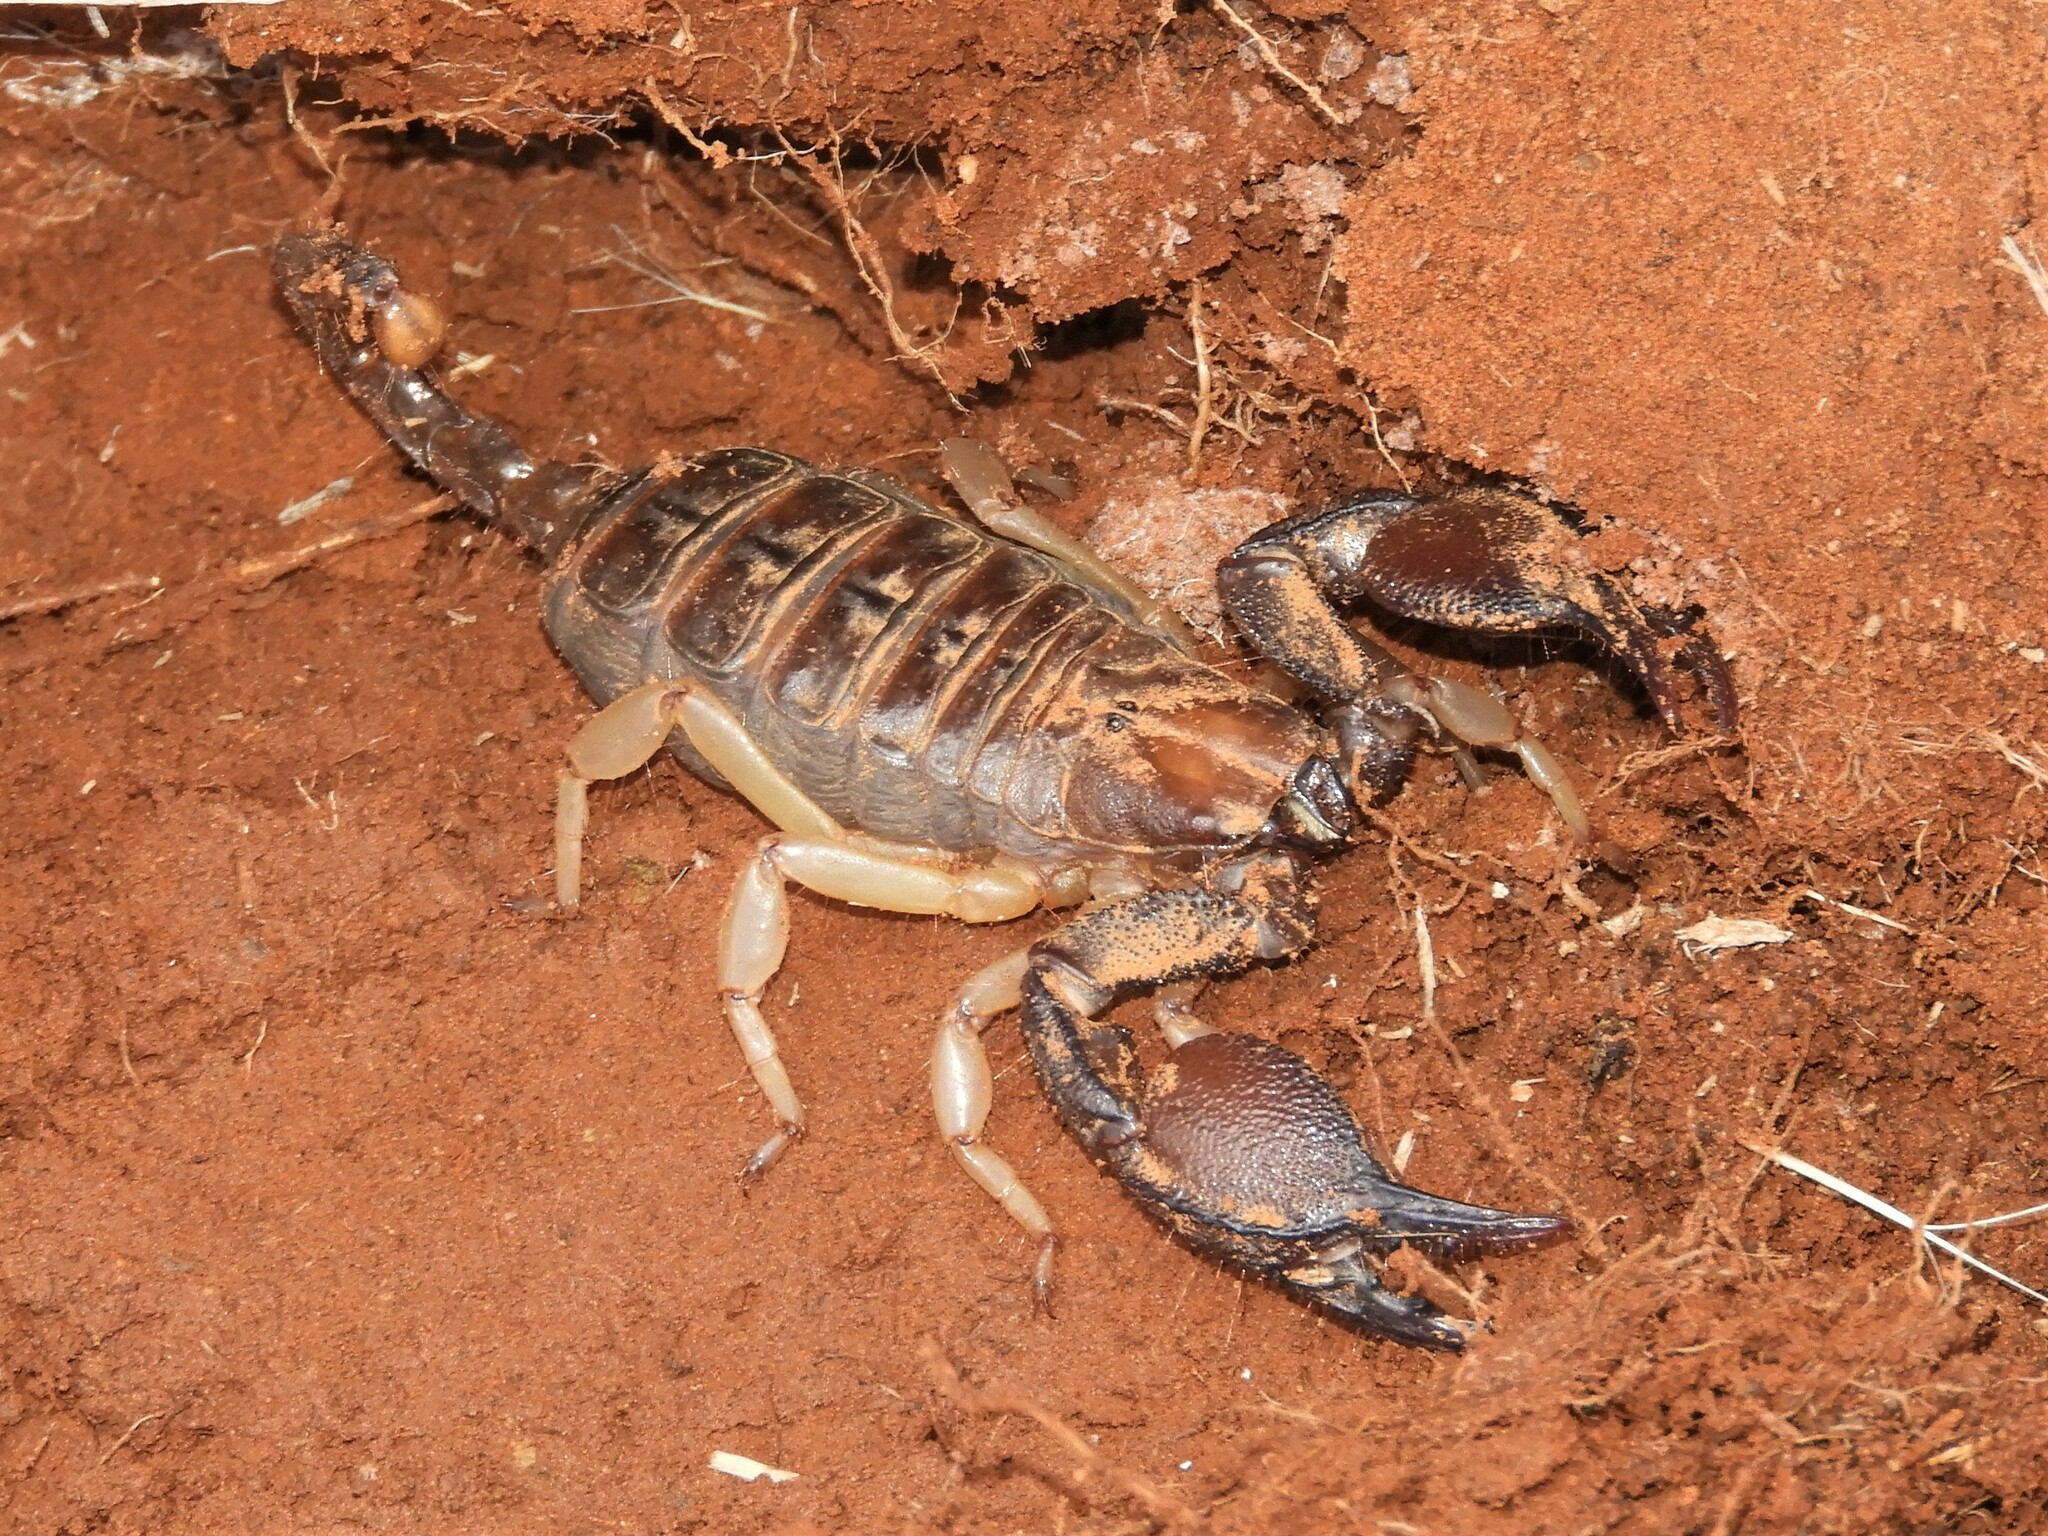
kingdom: Animalia
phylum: Arthropoda
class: Arachnida
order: Scorpiones
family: Scorpionidae
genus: Opistophthalmus
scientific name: Opistophthalmus austerus
